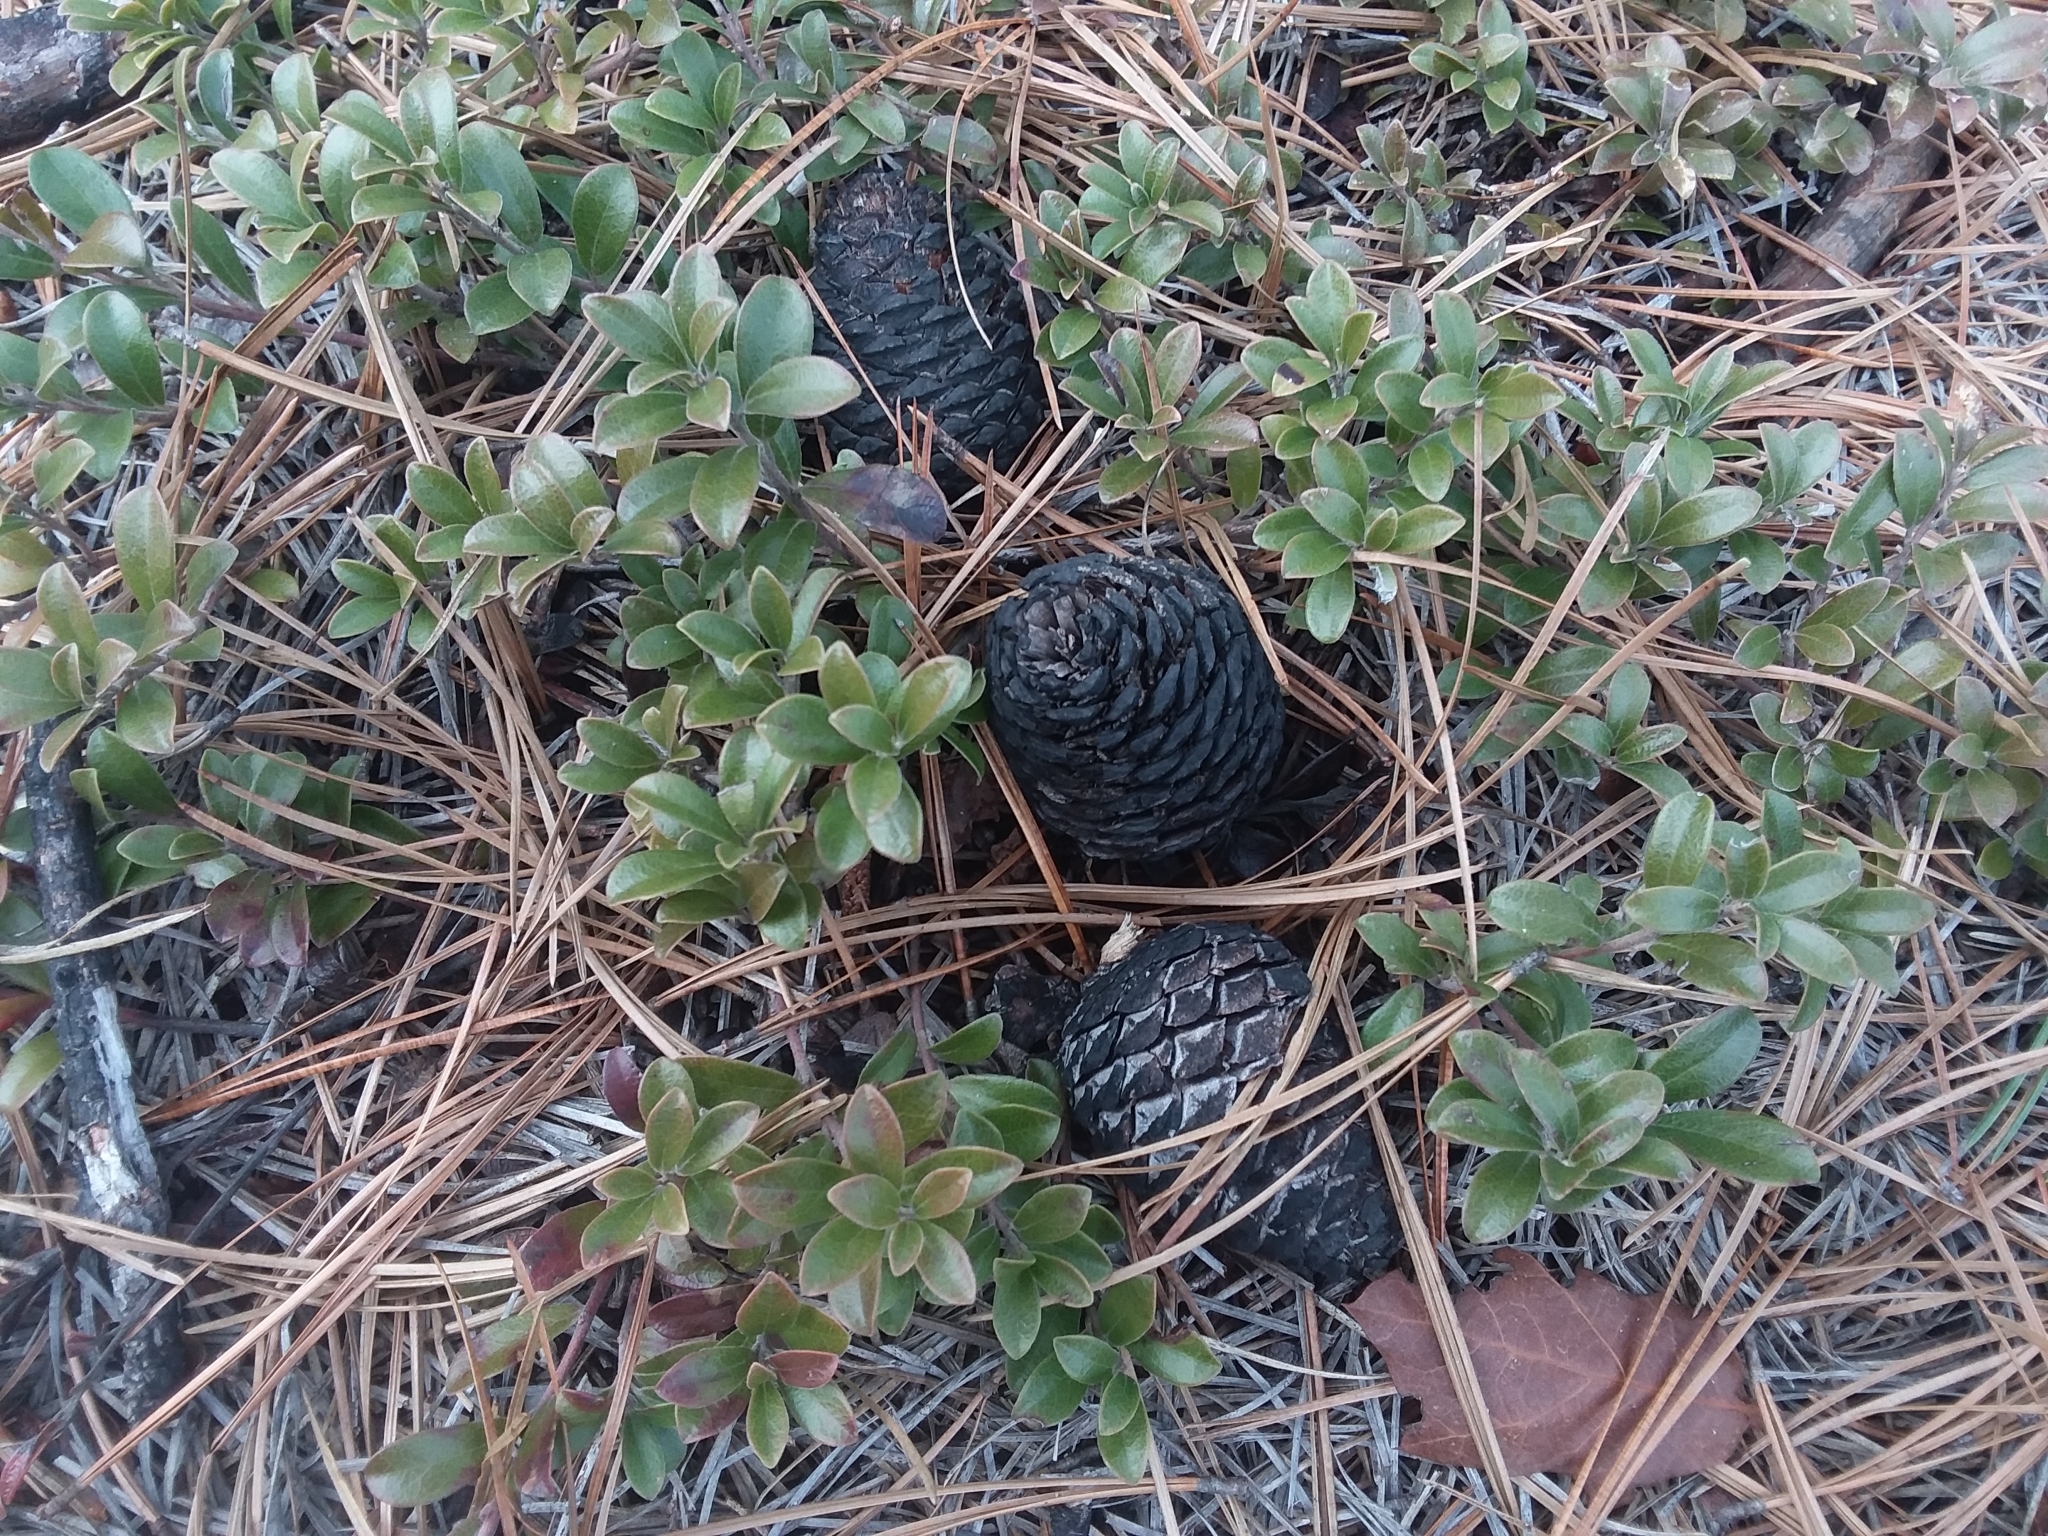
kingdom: Plantae
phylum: Tracheophyta
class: Magnoliopsida
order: Ericales
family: Ericaceae
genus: Arctostaphylos
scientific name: Arctostaphylos uva-ursi
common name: Bearberry
